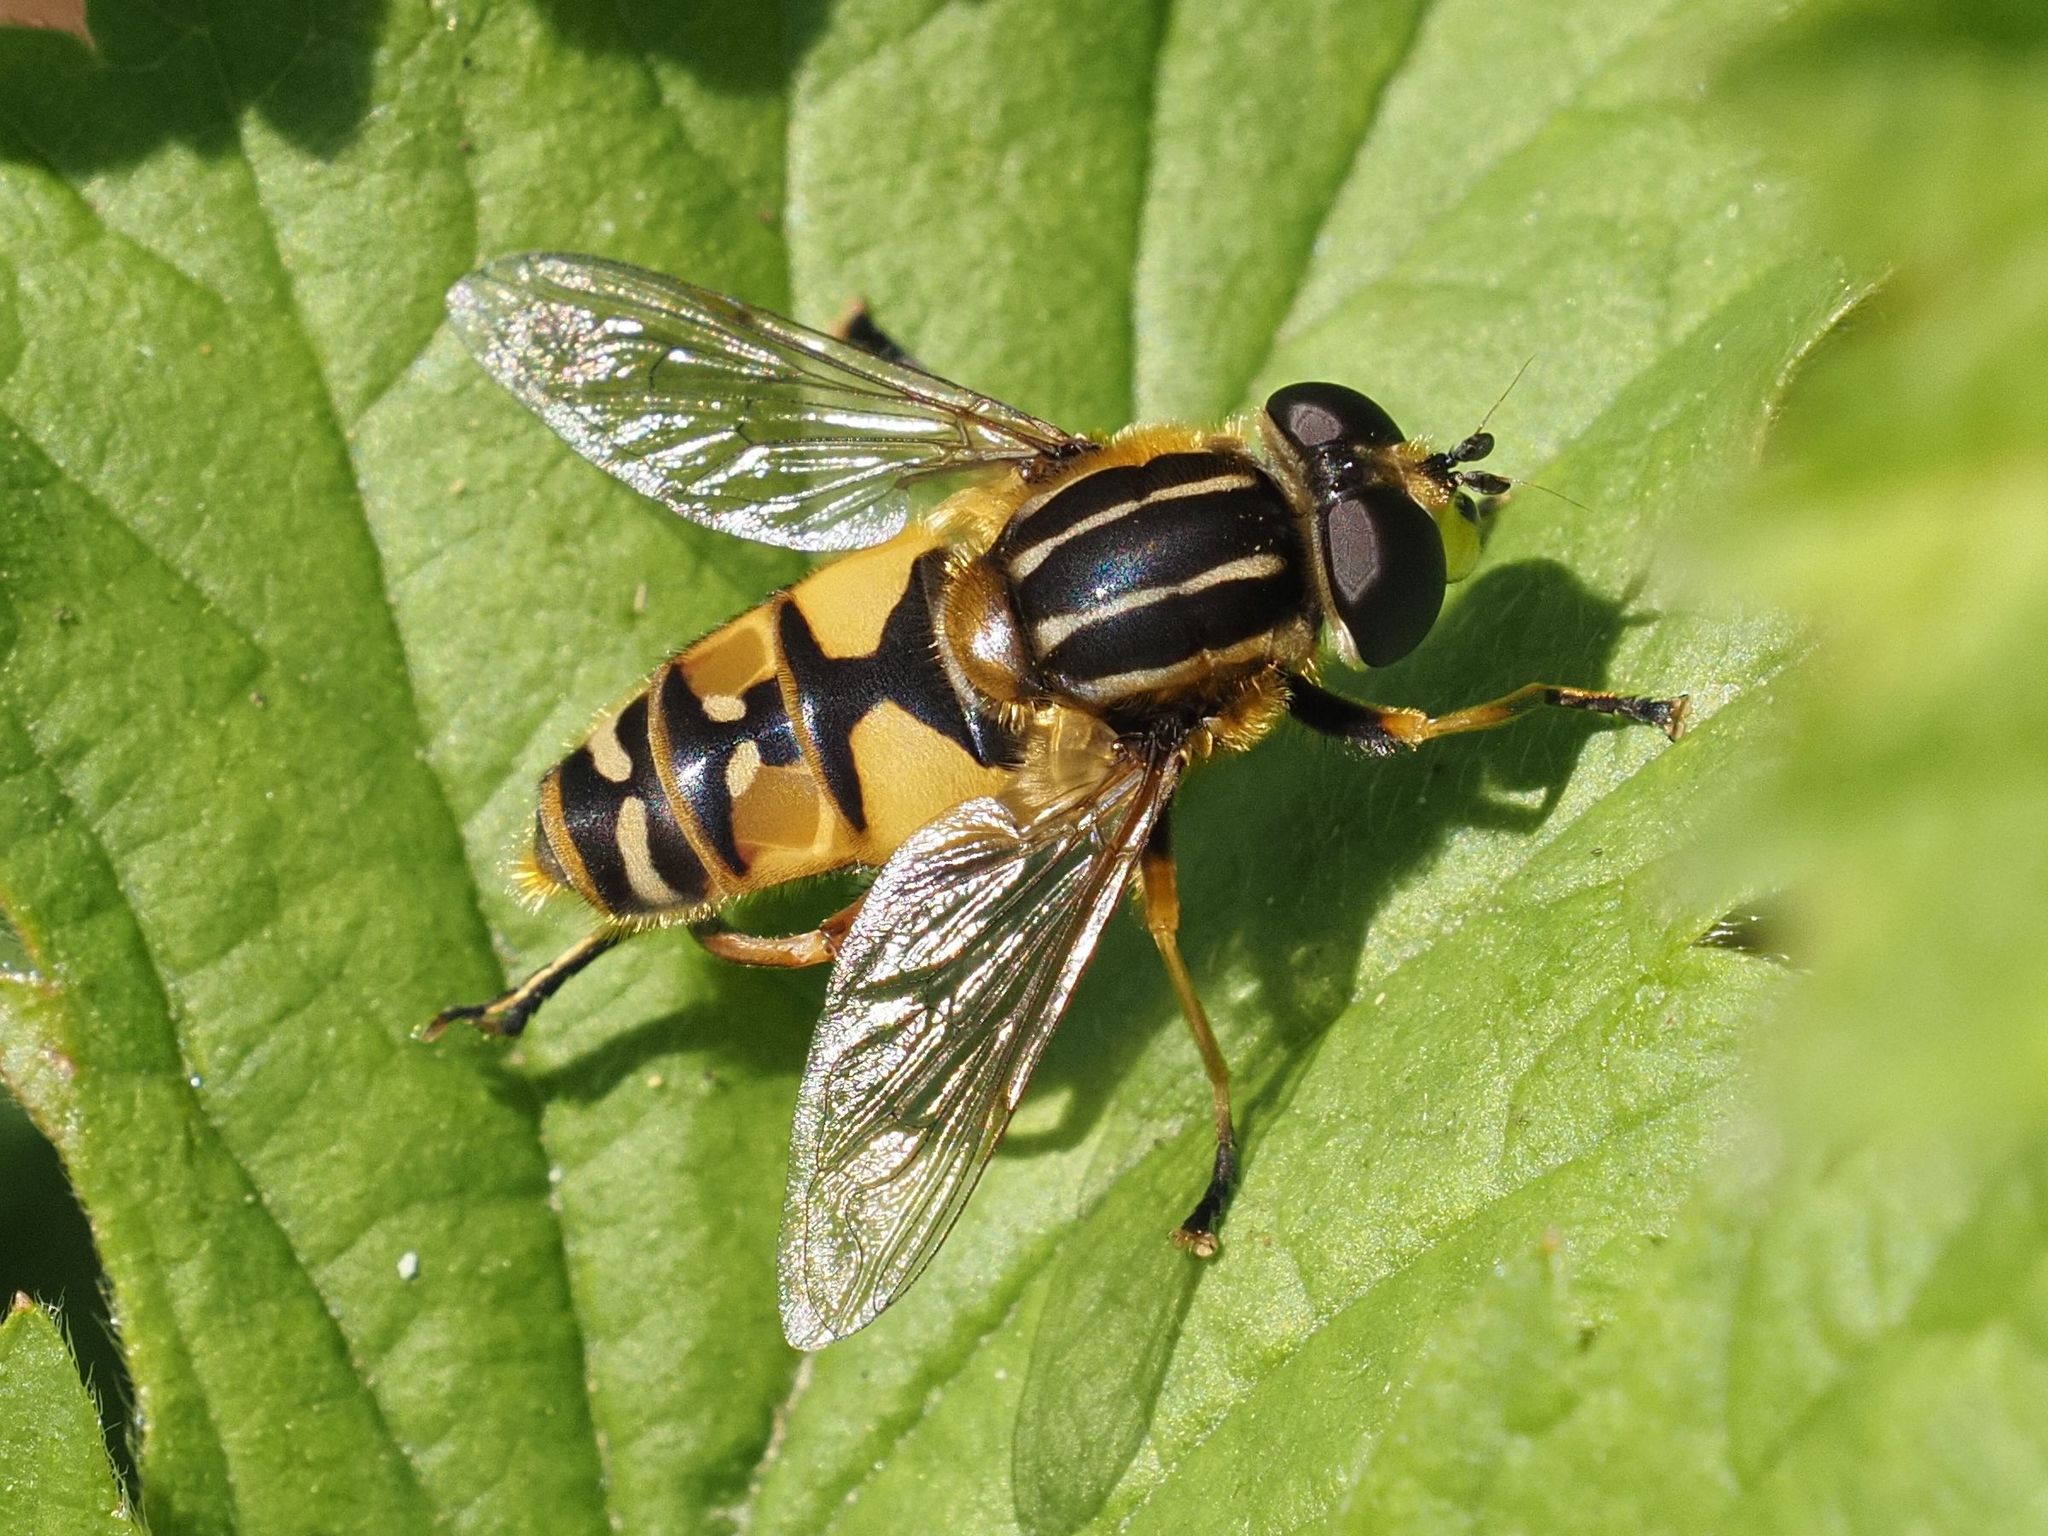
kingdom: Animalia
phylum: Arthropoda
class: Insecta
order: Diptera
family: Syrphidae
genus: Helophilus
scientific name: Helophilus pendulus
